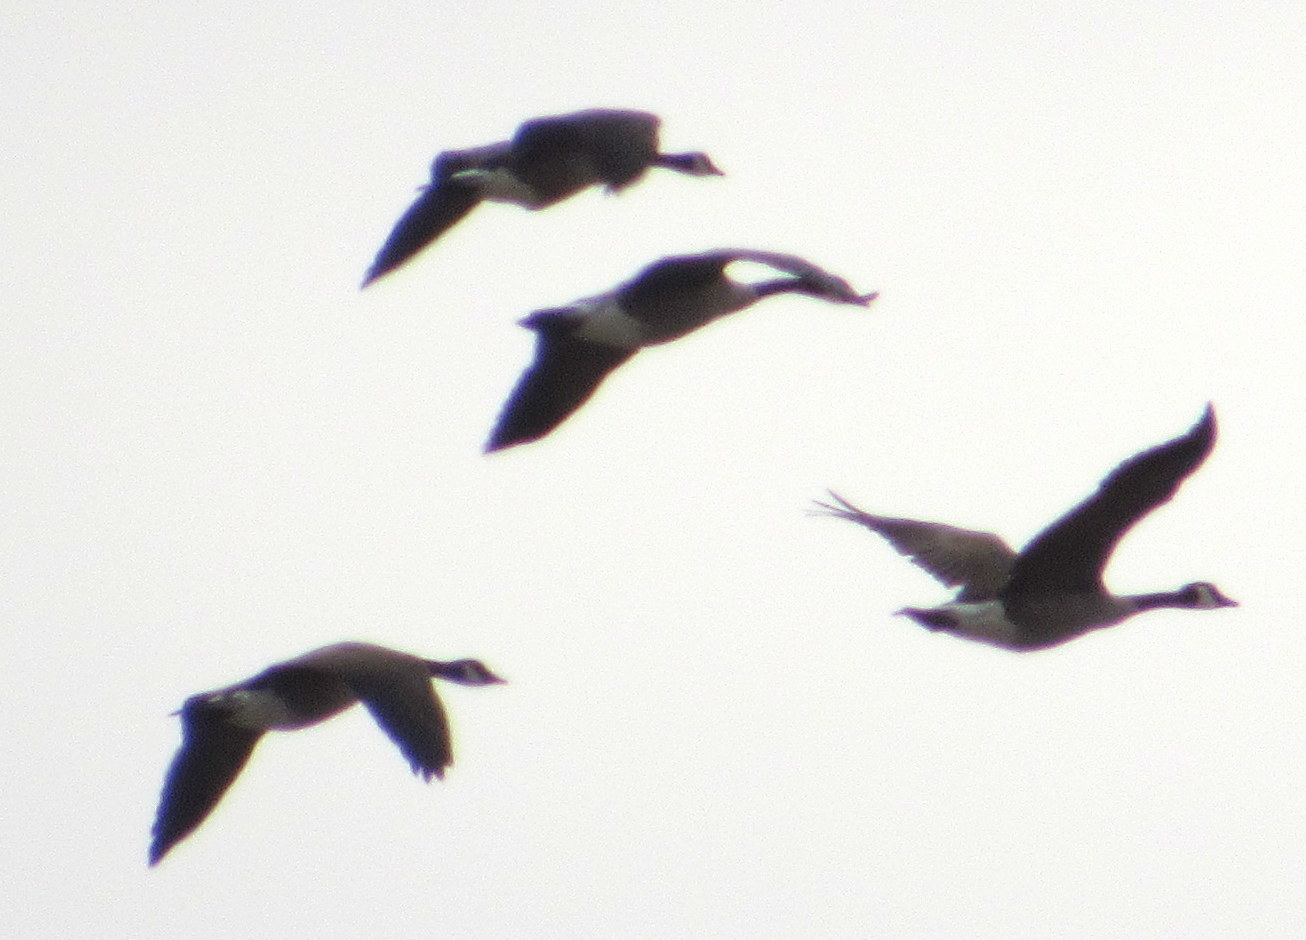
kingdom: Animalia
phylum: Chordata
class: Aves
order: Anseriformes
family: Anatidae
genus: Branta
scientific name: Branta canadensis
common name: Canada goose
